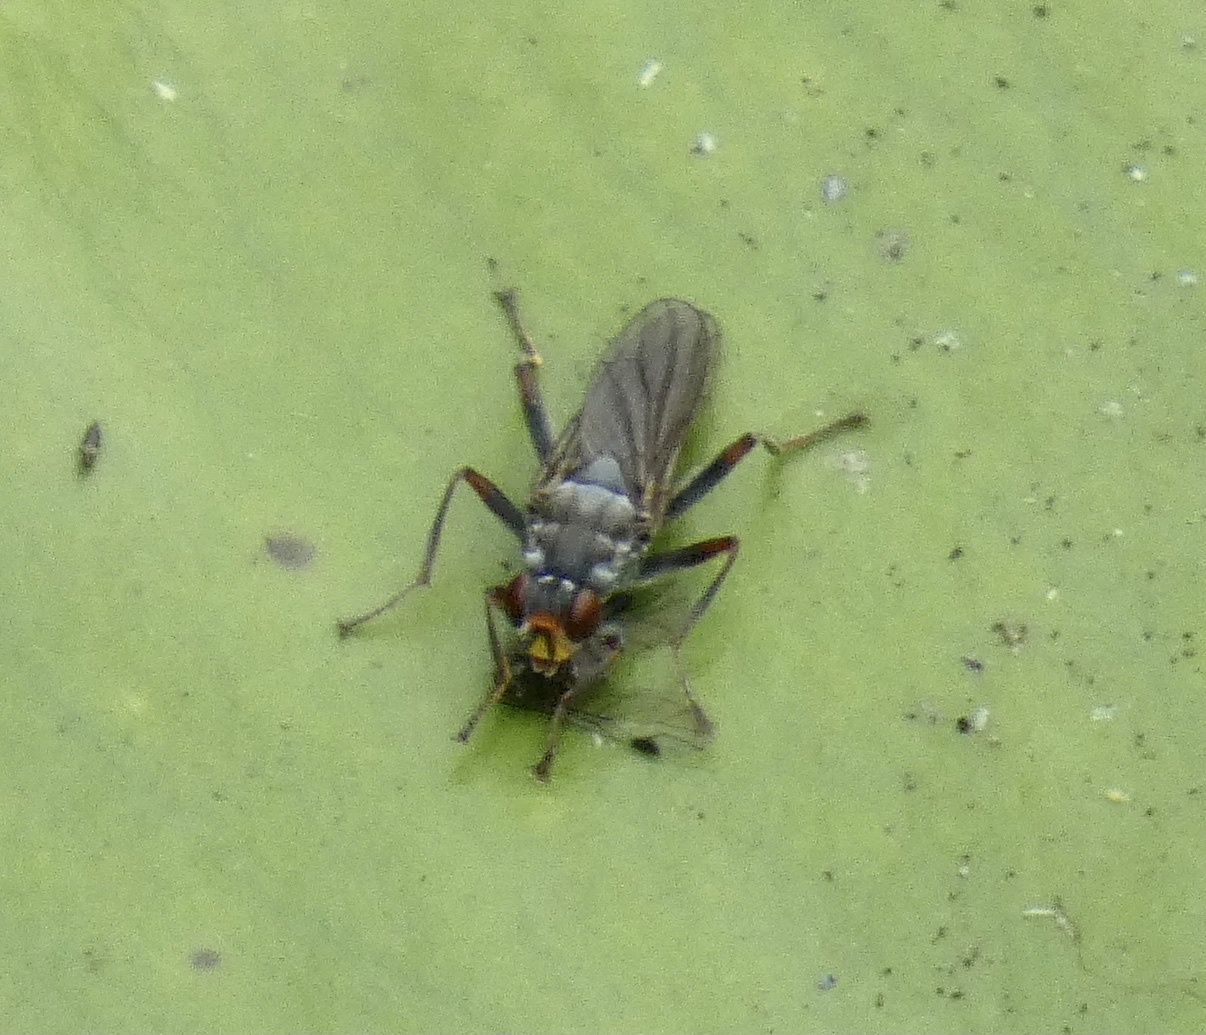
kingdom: Animalia
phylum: Arthropoda
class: Insecta
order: Diptera
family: Scathophagidae
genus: Hydromyza
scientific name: Hydromyza livens
